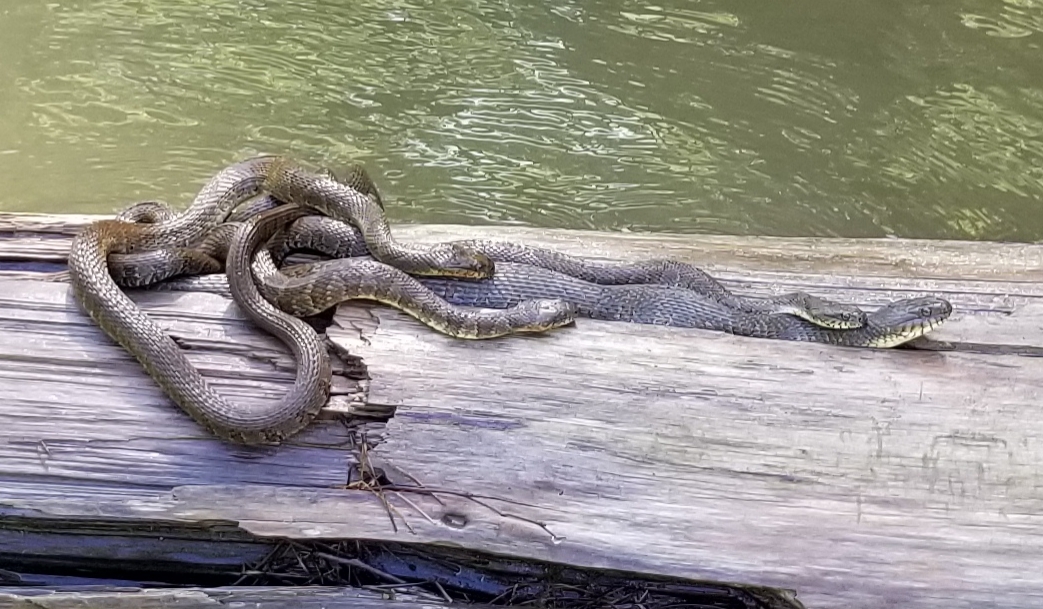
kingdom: Animalia
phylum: Chordata
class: Squamata
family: Colubridae
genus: Nerodia
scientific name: Nerodia sipedon
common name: Northern water snake
